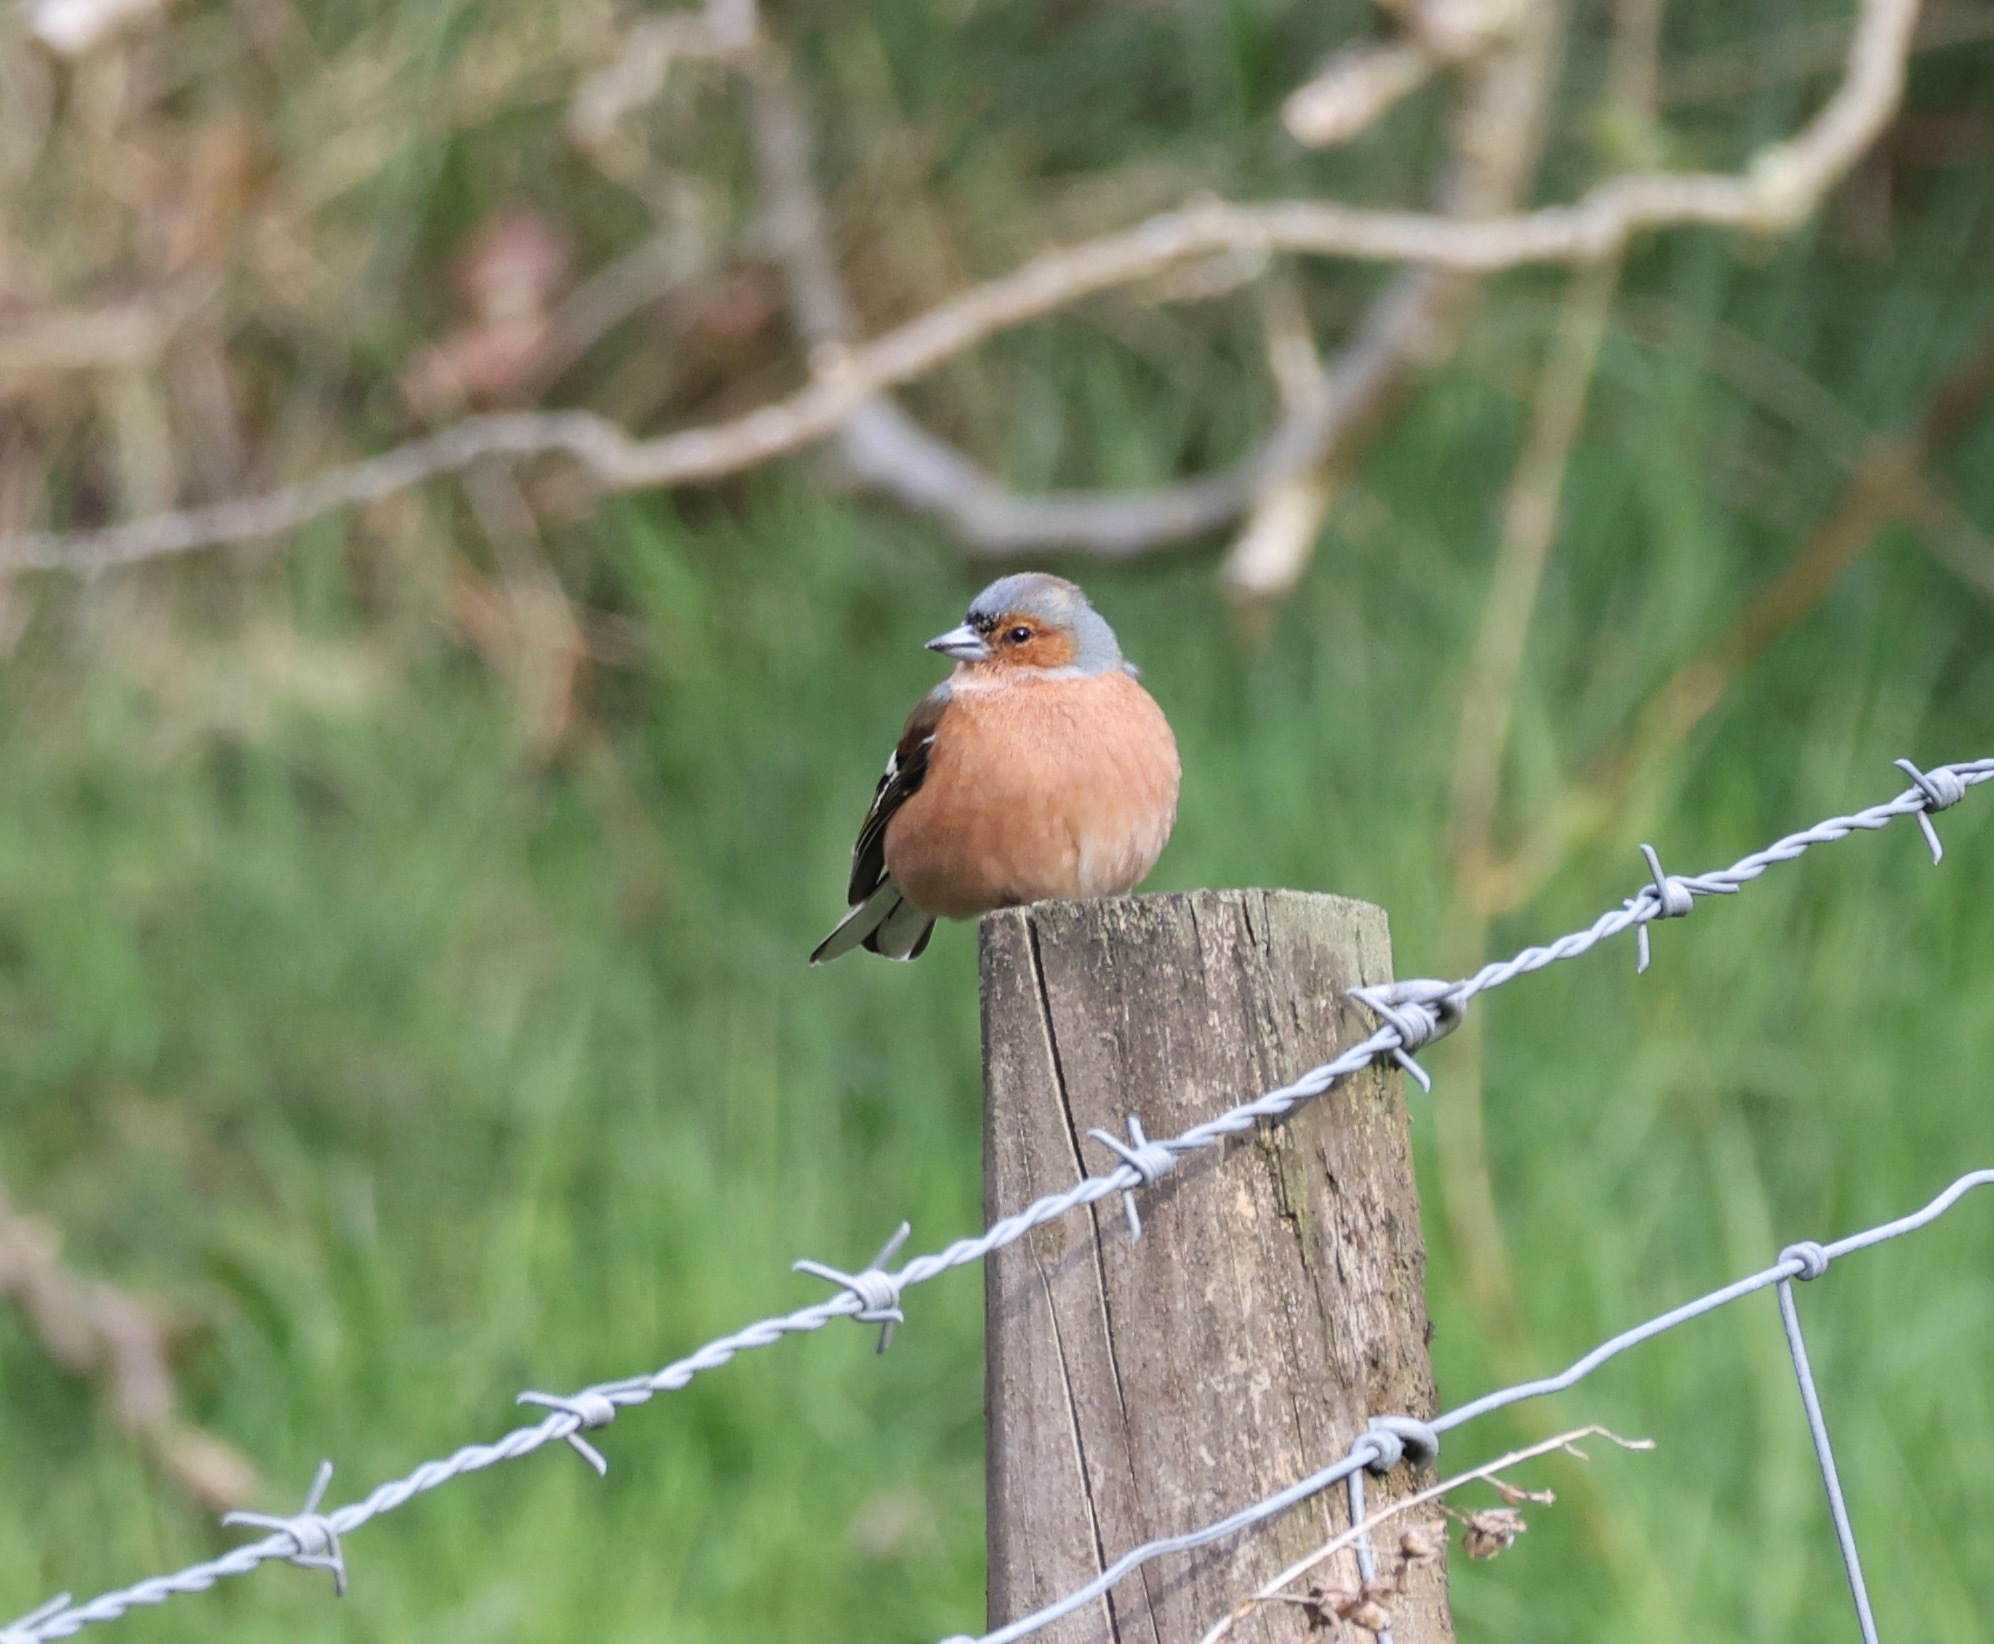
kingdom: Animalia
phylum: Chordata
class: Aves
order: Passeriformes
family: Fringillidae
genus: Fringilla
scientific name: Fringilla coelebs
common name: Common chaffinch
